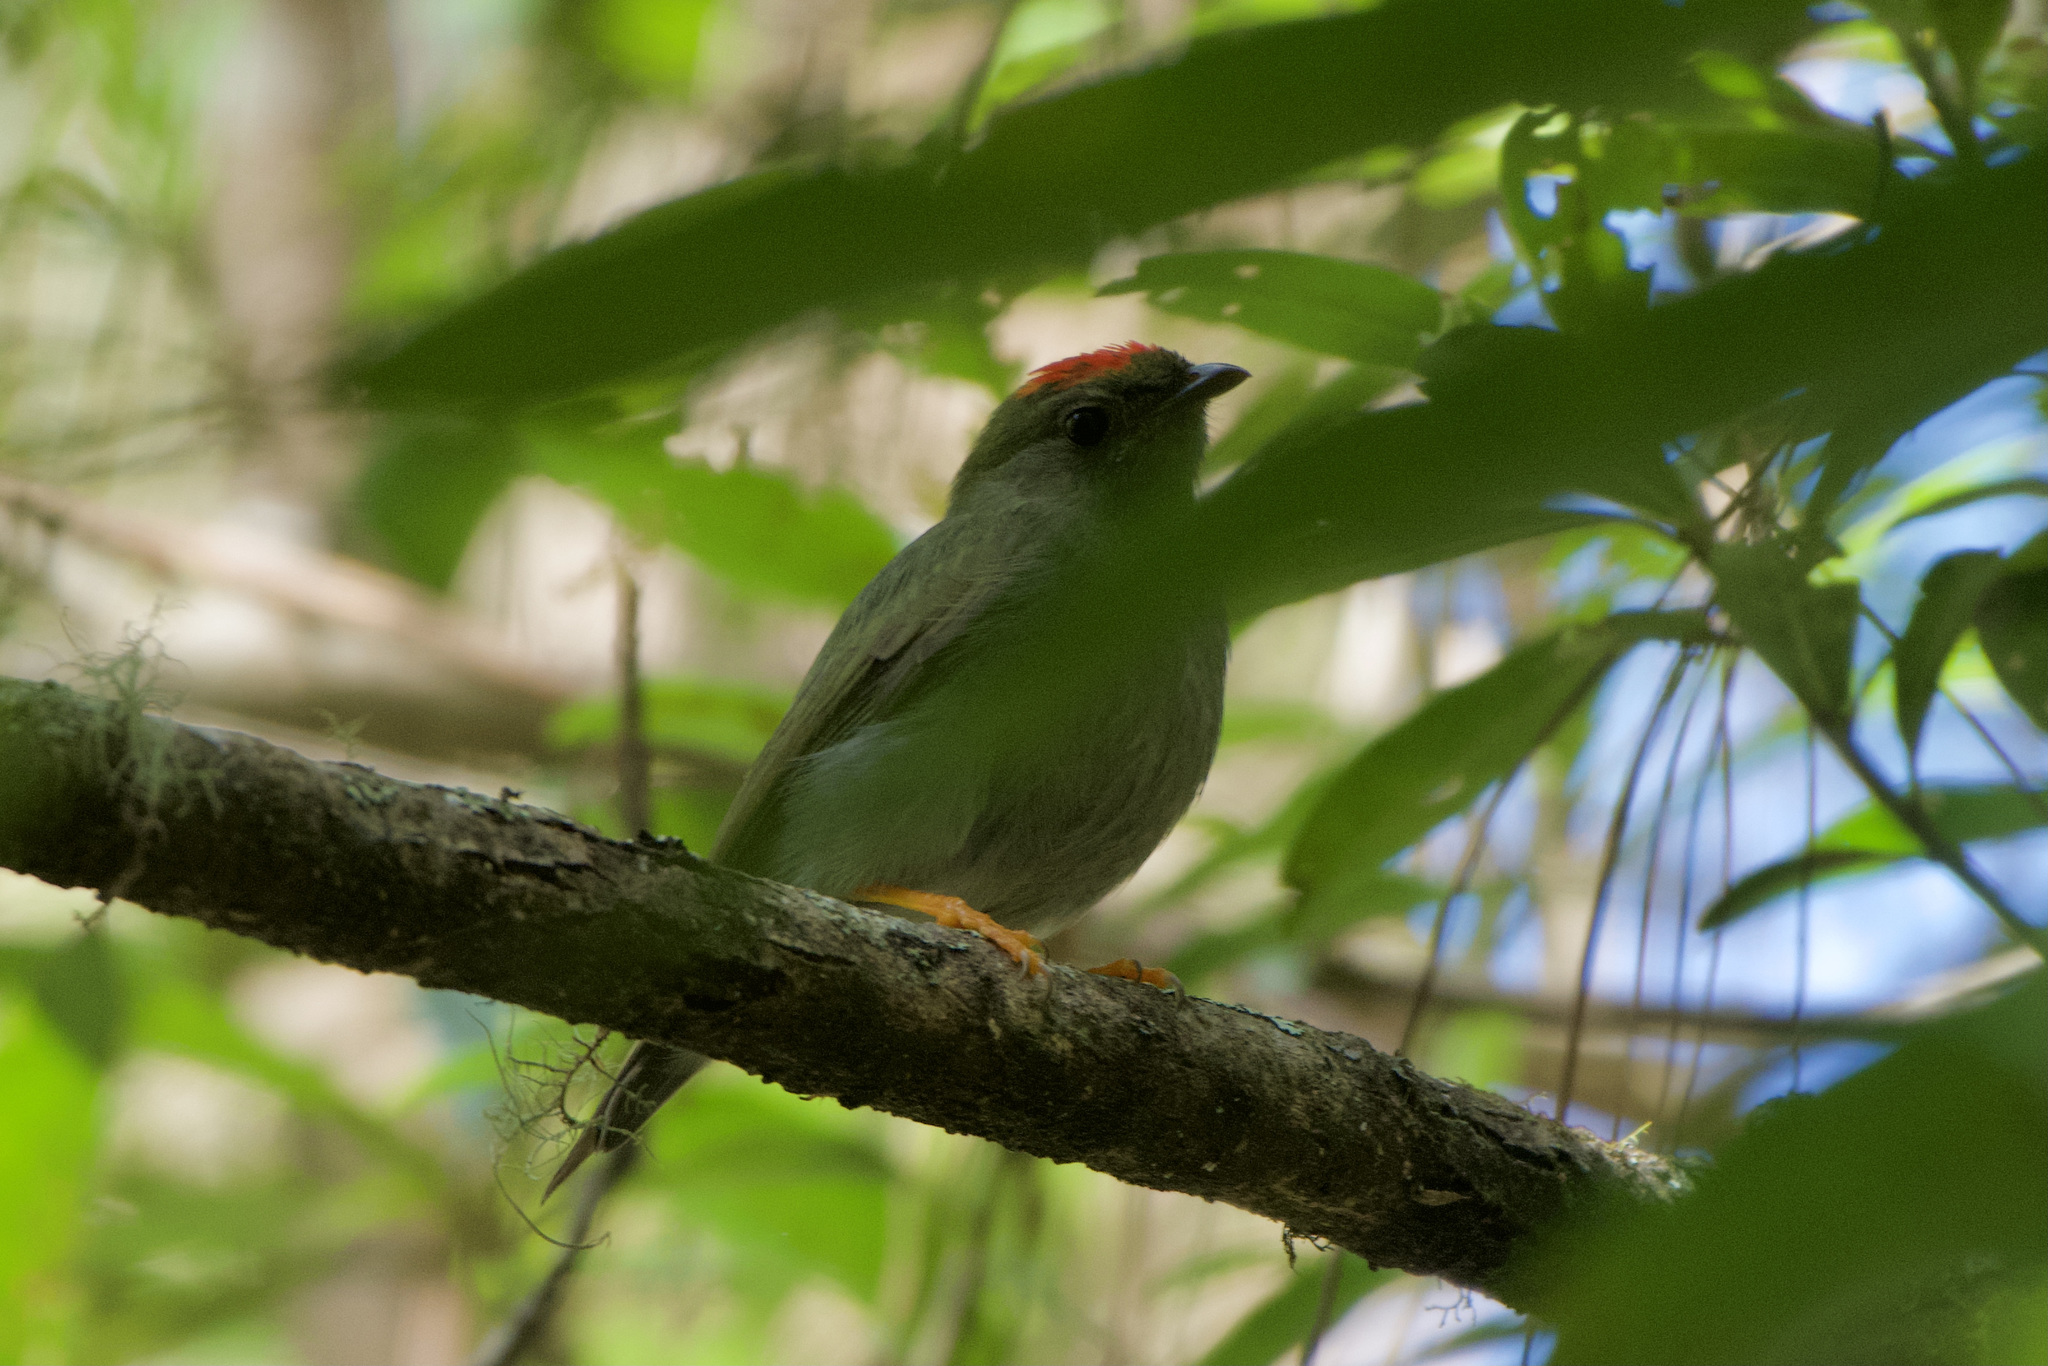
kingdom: Animalia
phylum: Chordata
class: Aves
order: Passeriformes
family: Pipridae
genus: Chiroxiphia
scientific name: Chiroxiphia lanceolata
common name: Lance-tailed manakin
